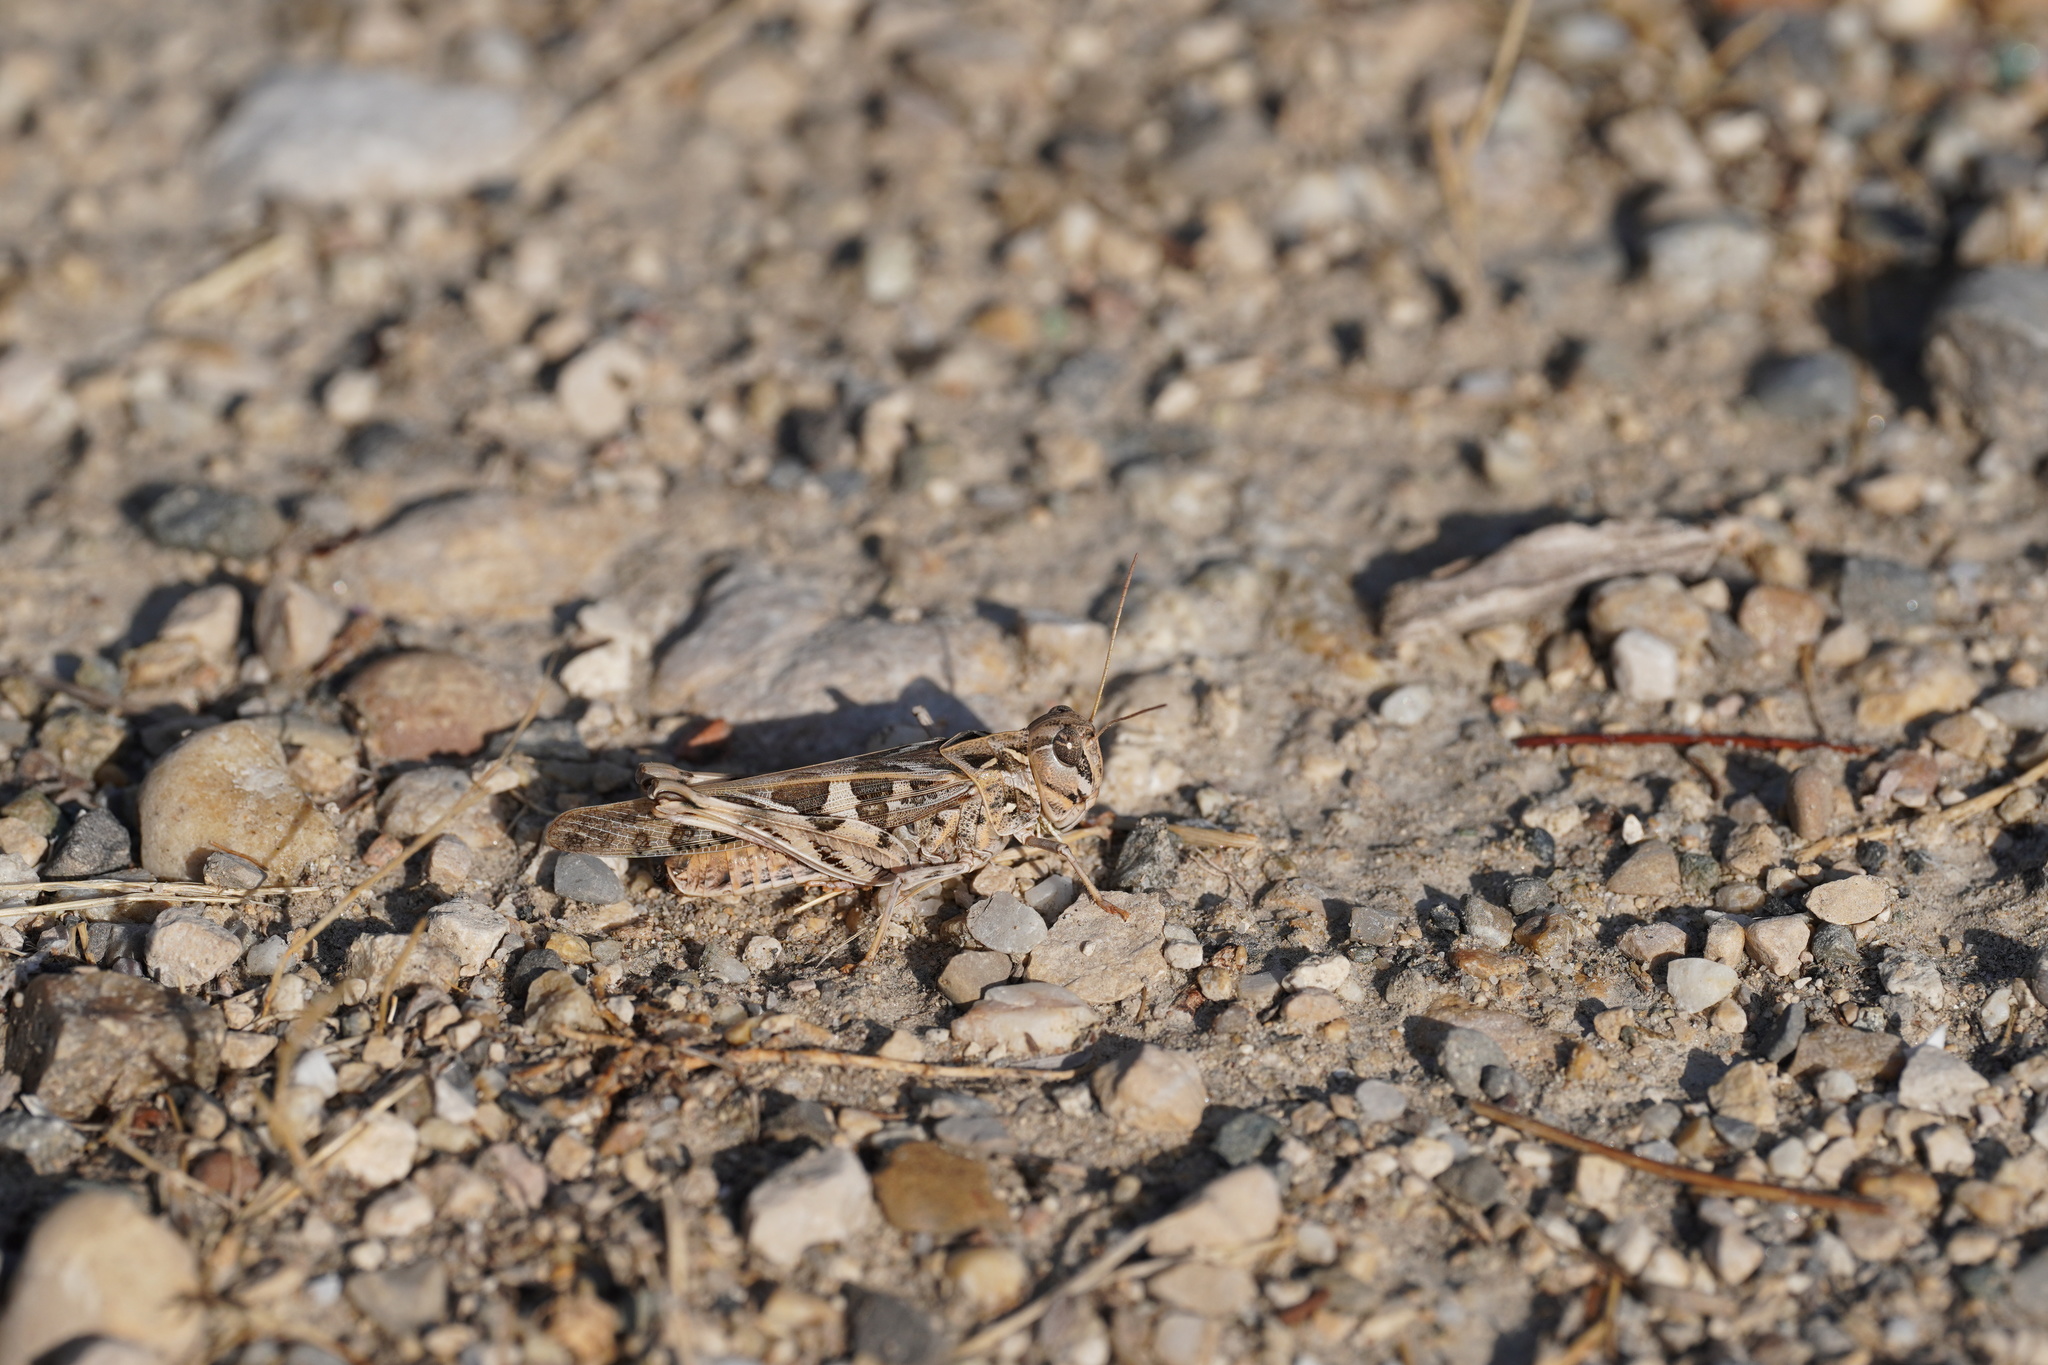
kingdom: Animalia
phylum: Arthropoda
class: Insecta
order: Orthoptera
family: Acrididae
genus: Oedaleus
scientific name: Oedaleus decorus
